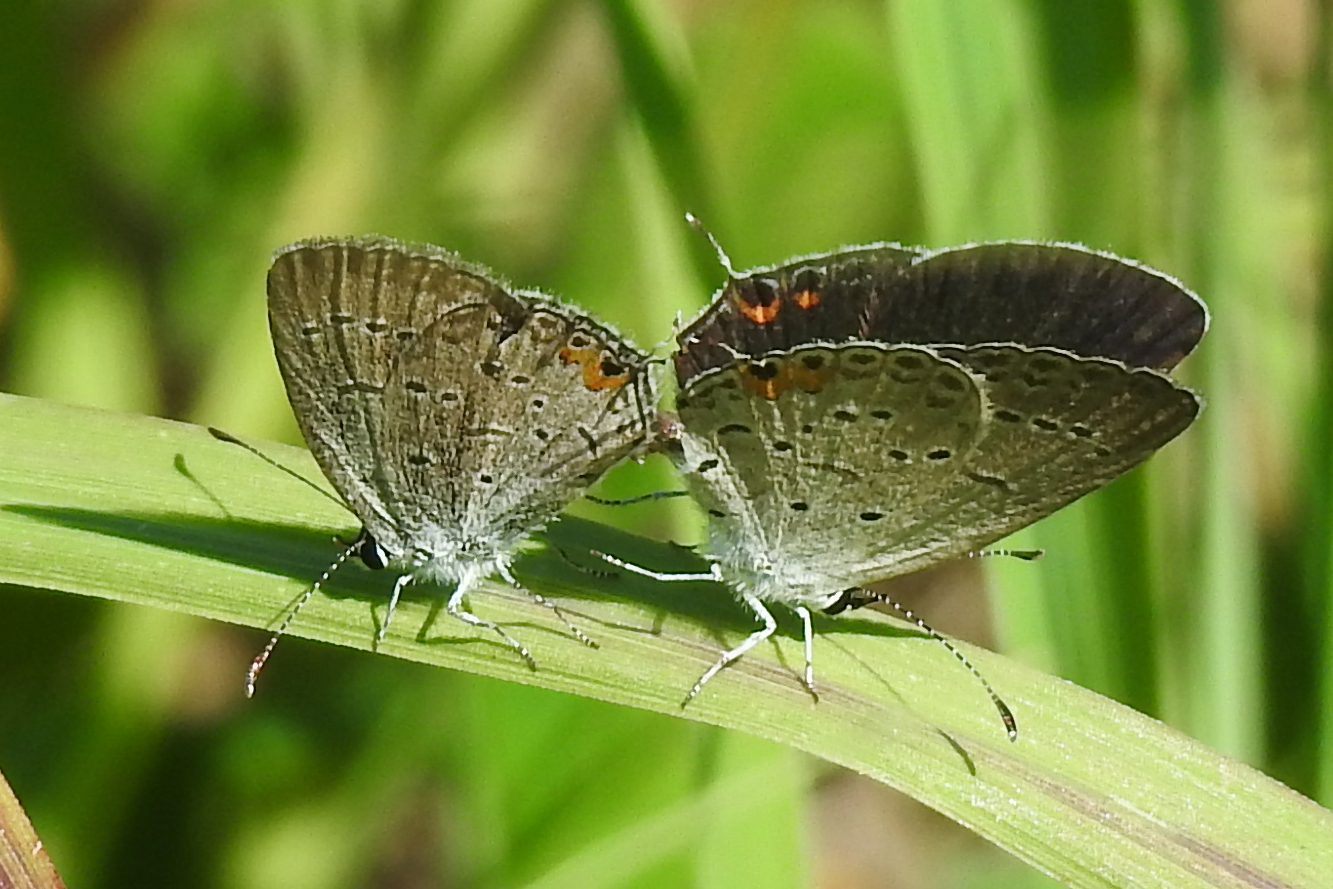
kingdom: Animalia
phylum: Arthropoda
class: Insecta
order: Lepidoptera
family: Lycaenidae
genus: Elkalyce
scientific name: Elkalyce comyntas
